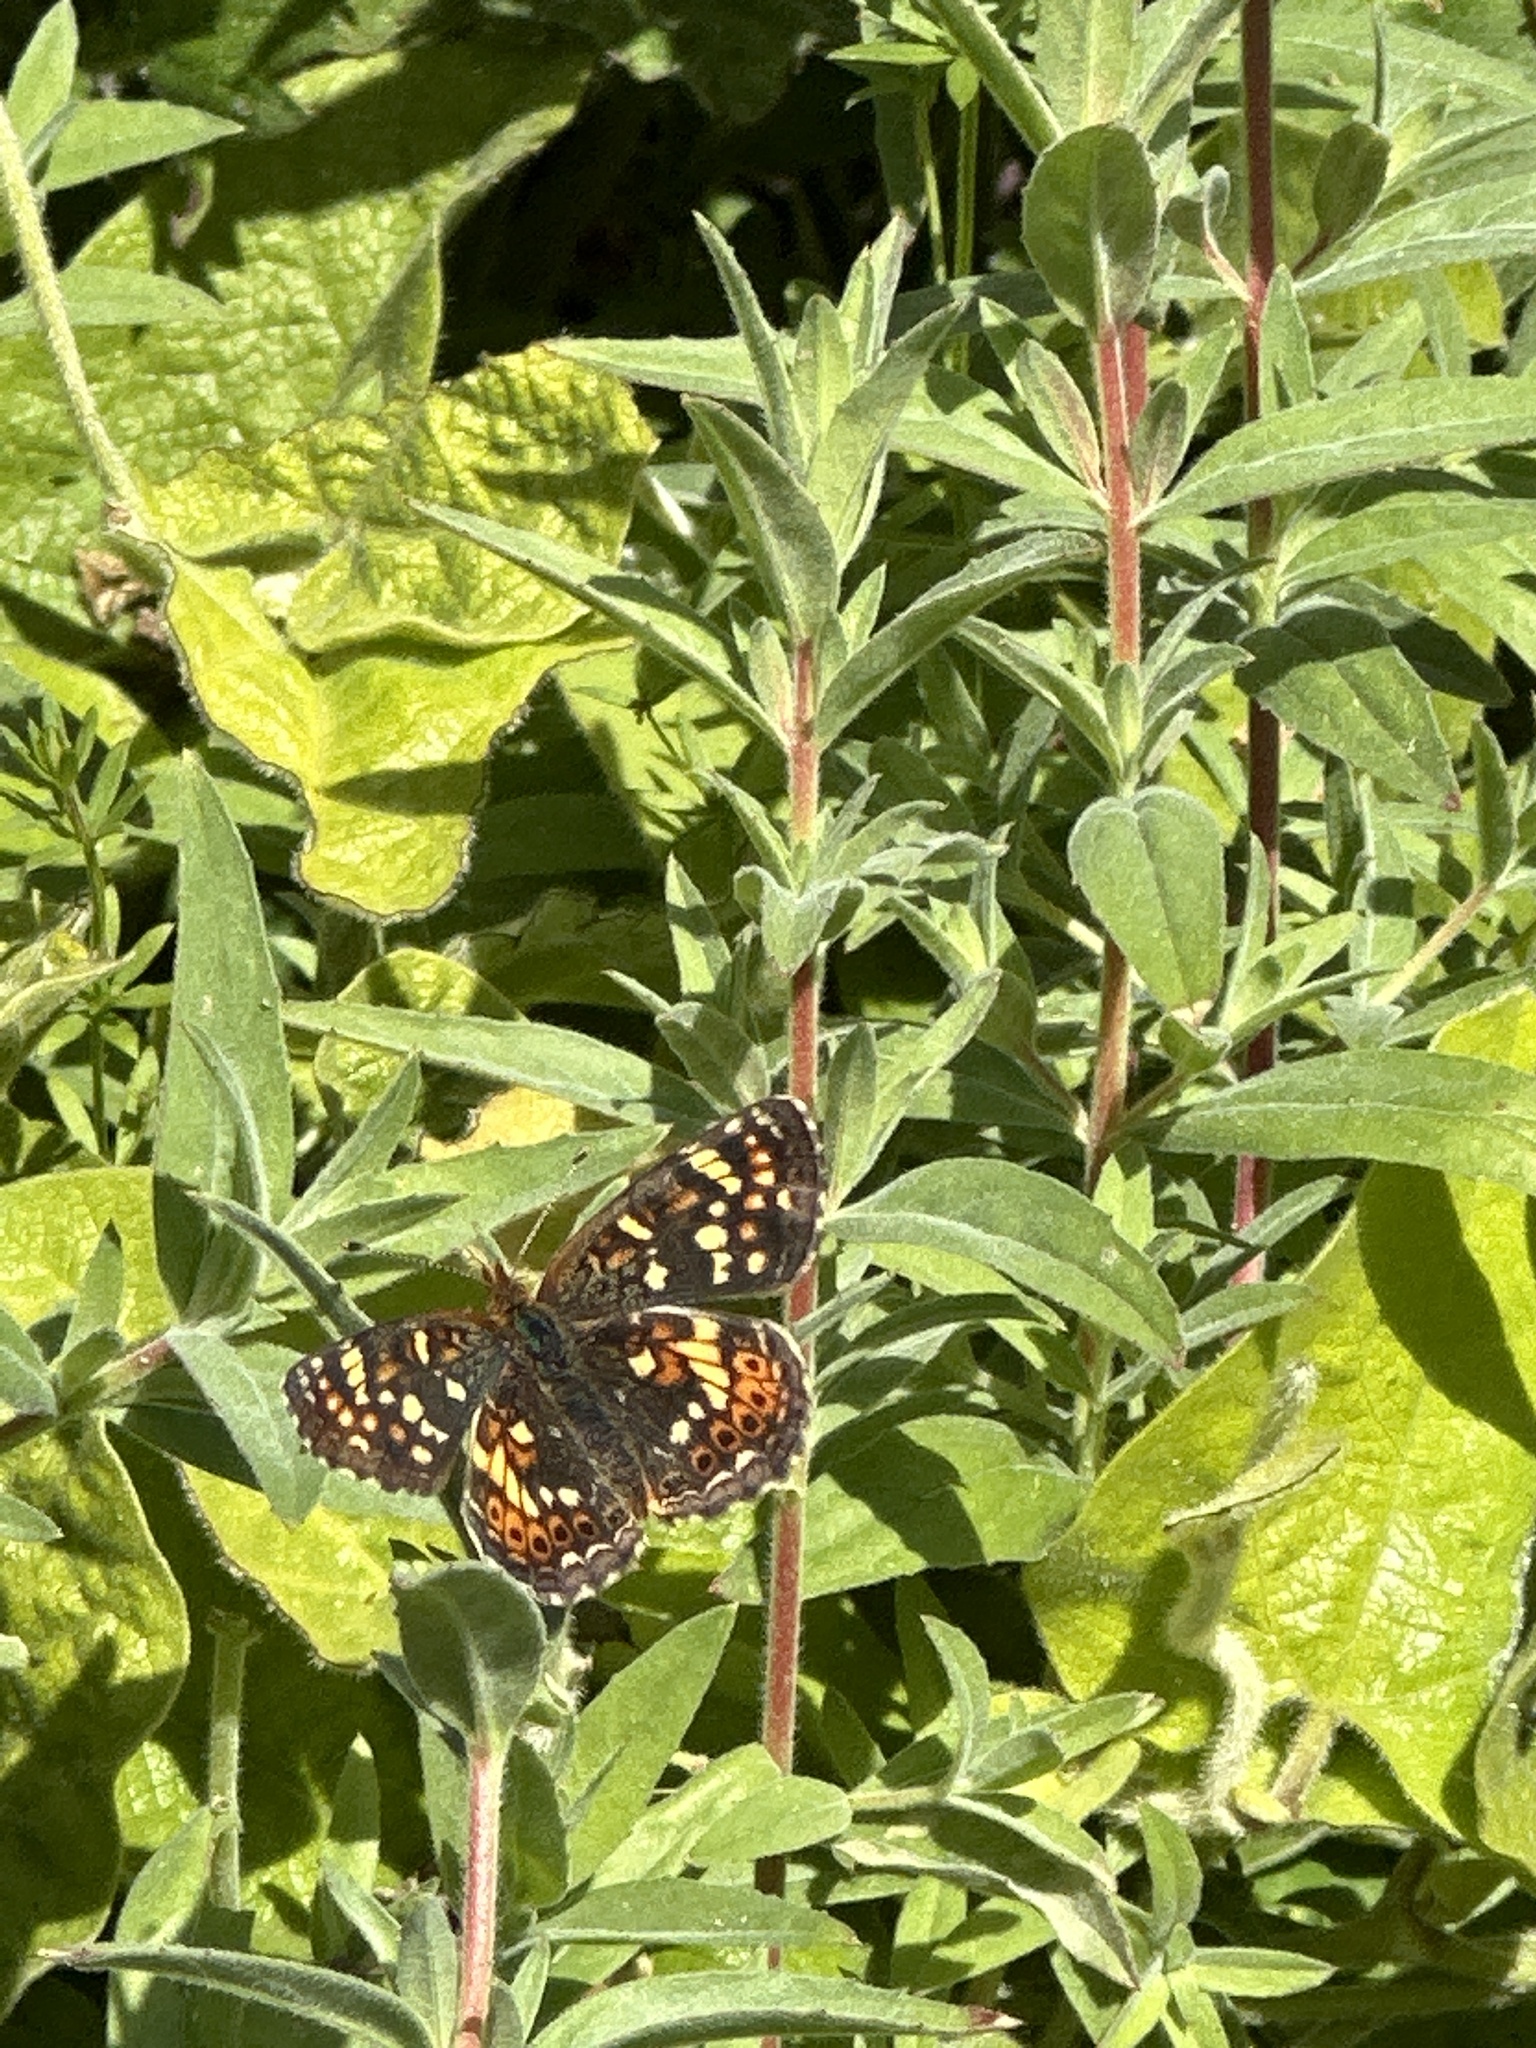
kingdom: Animalia
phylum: Arthropoda
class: Insecta
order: Lepidoptera
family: Nymphalidae
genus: Phyciodes
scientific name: Phyciodes tharos
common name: Pearl crescent
